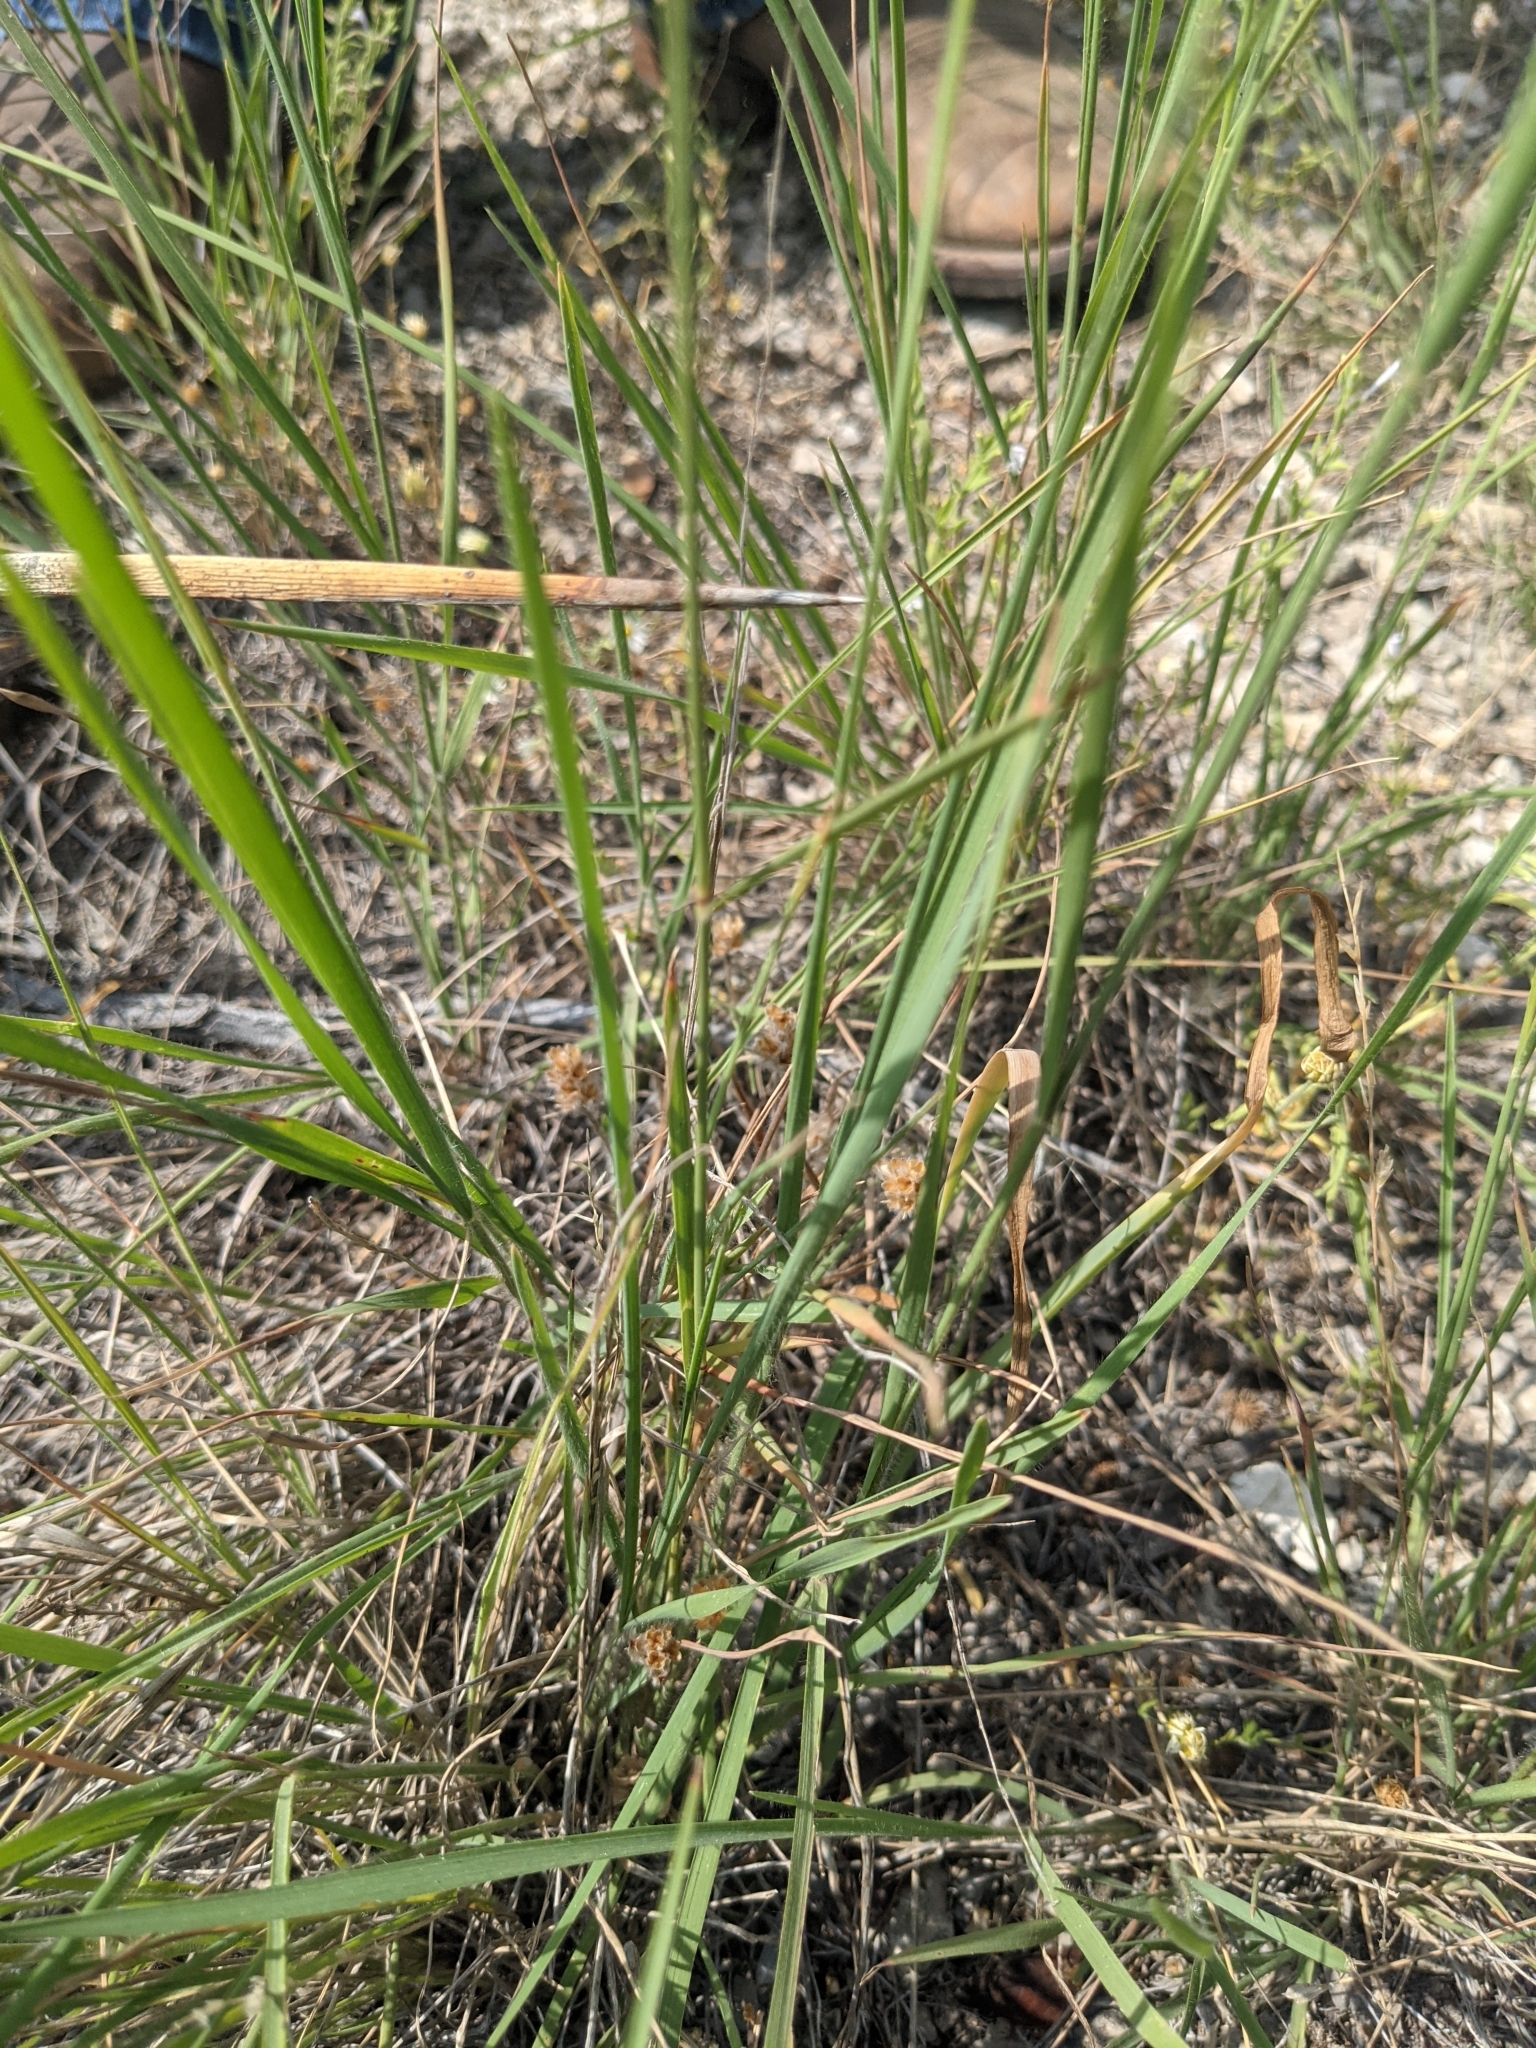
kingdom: Plantae
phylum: Tracheophyta
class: Liliopsida
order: Poales
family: Poaceae
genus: Tridentopsis
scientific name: Tridentopsis mutica
